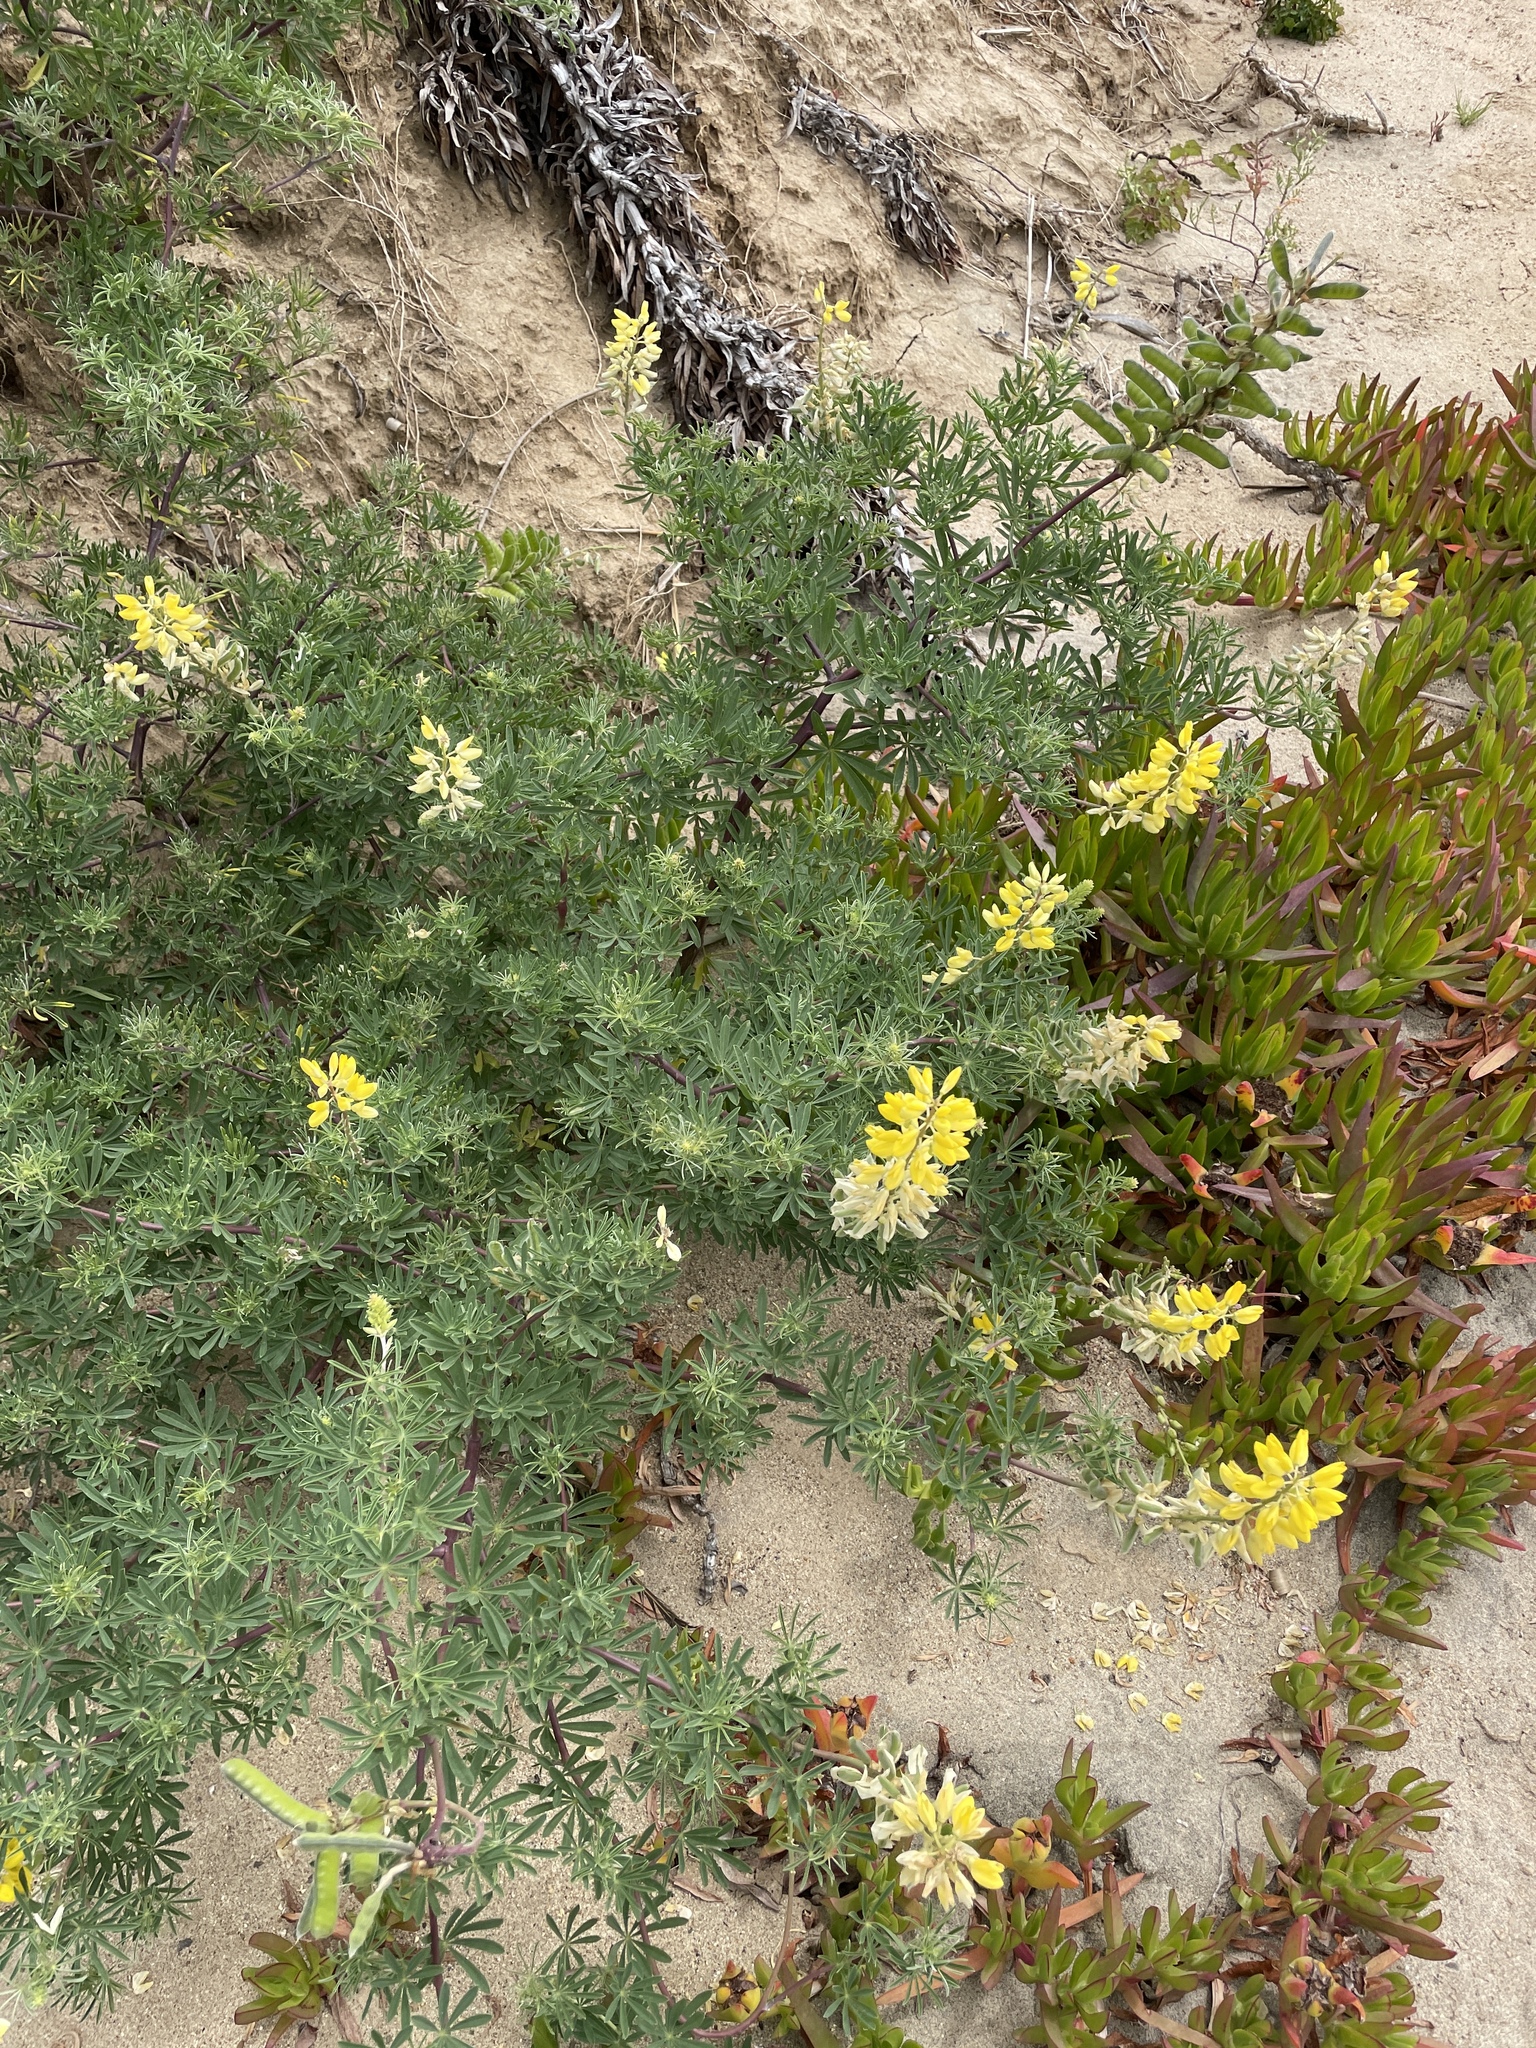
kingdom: Plantae
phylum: Tracheophyta
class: Magnoliopsida
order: Fabales
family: Fabaceae
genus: Lupinus
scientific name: Lupinus arboreus
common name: Yellow bush lupine
